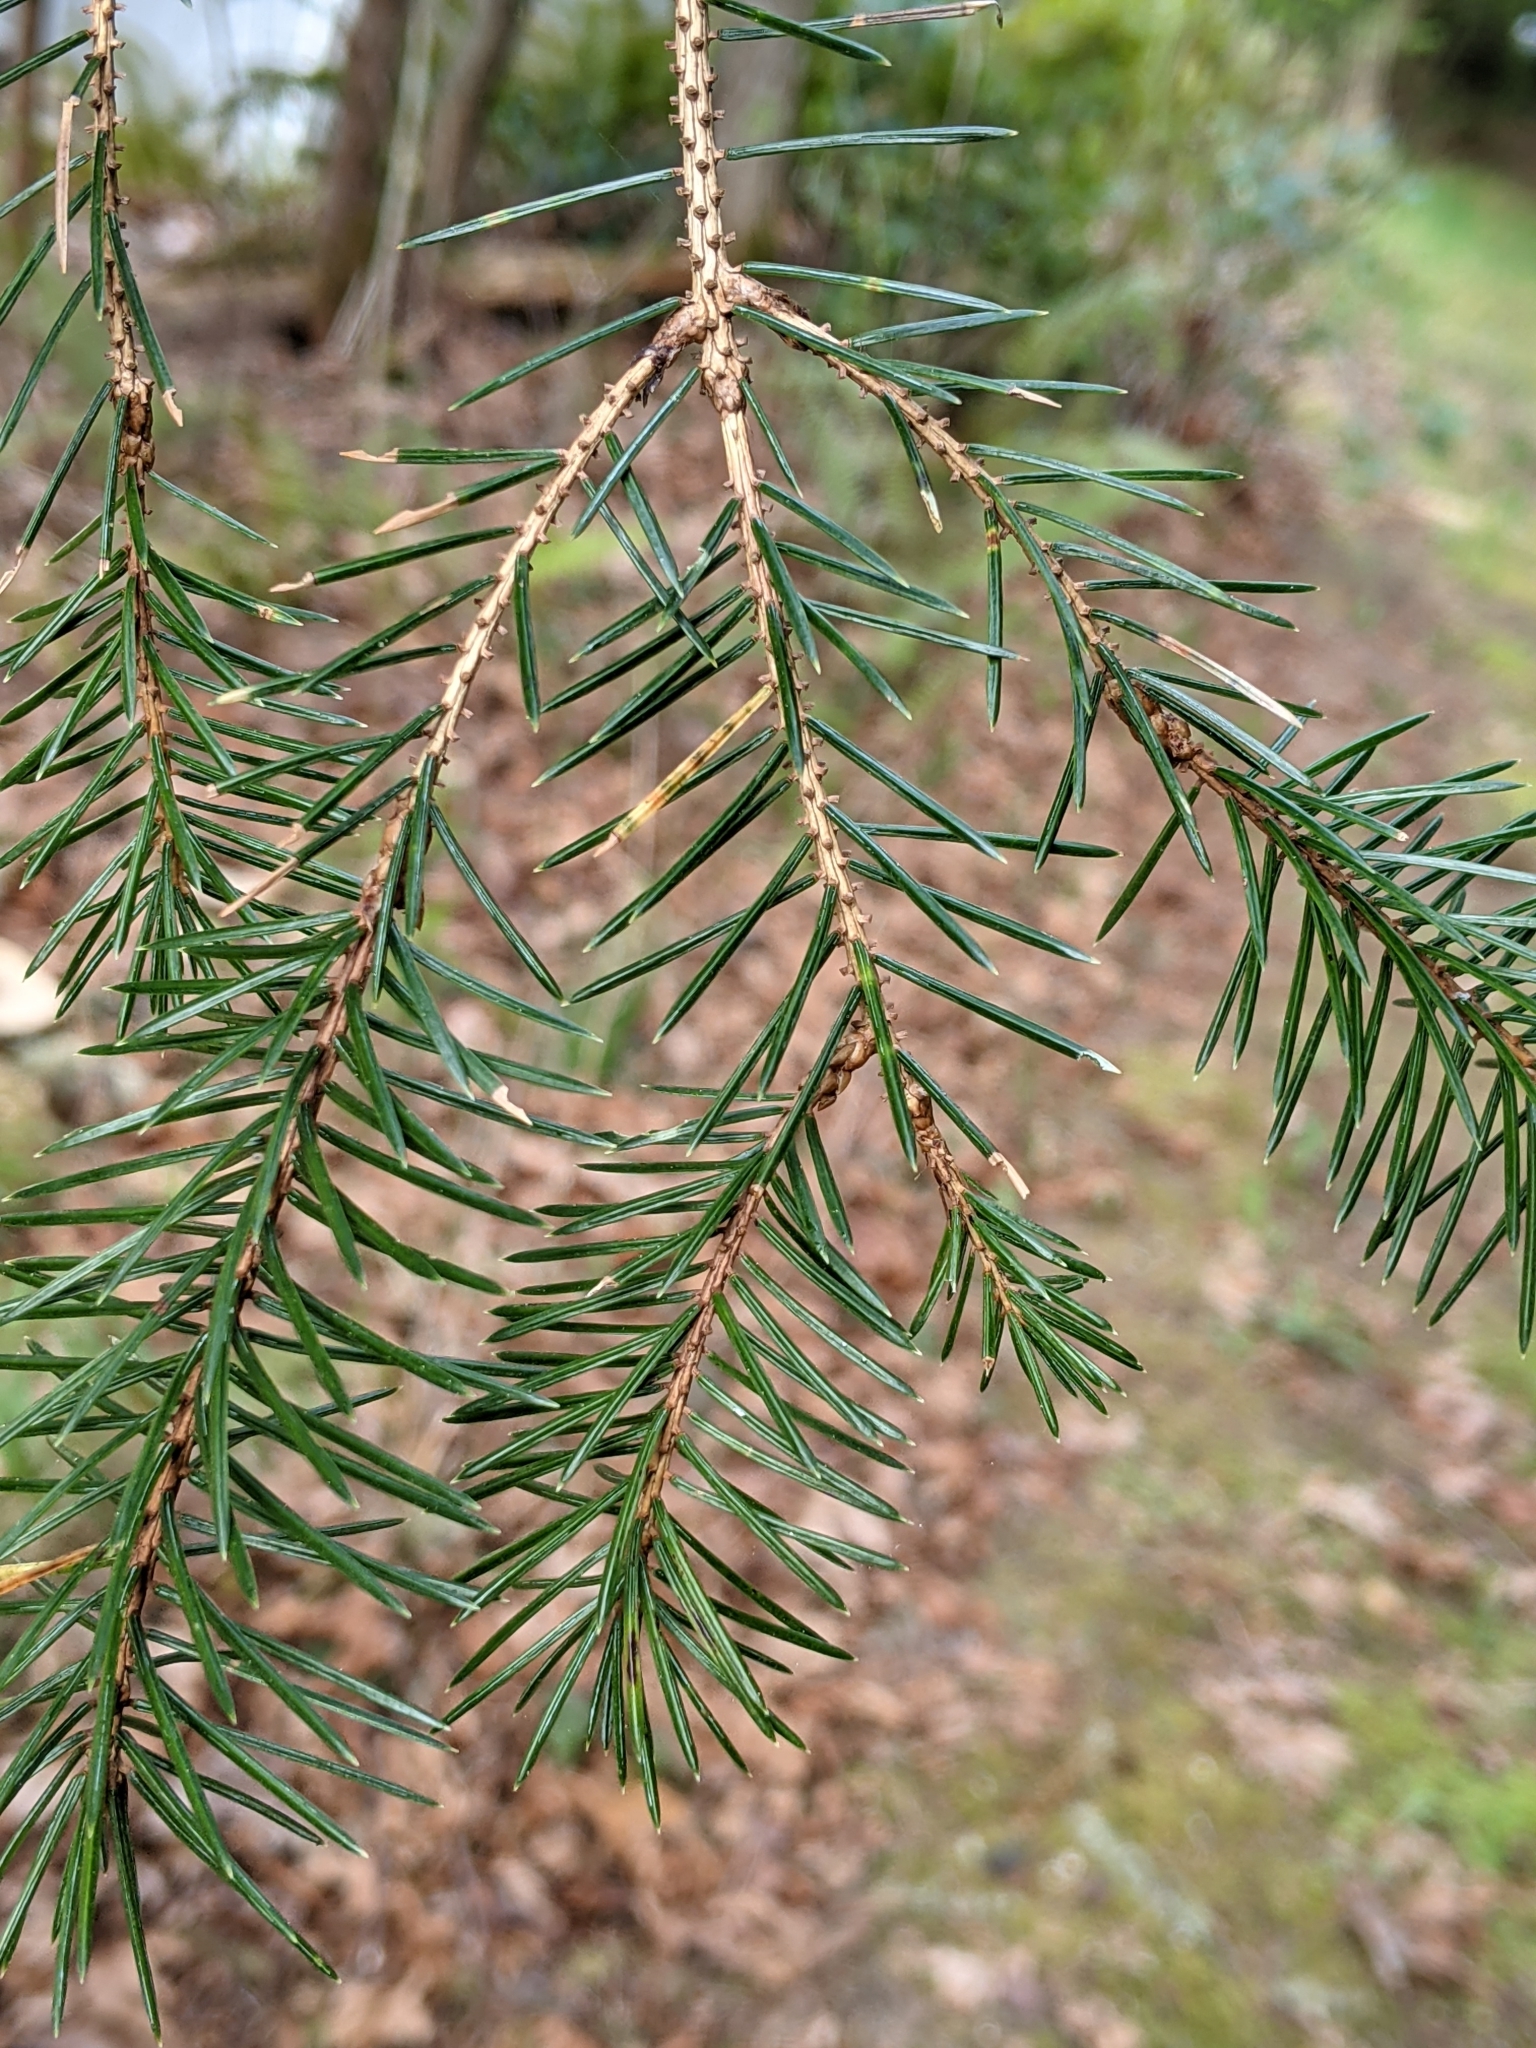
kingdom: Plantae
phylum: Tracheophyta
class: Pinopsida
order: Pinales
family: Pinaceae
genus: Picea
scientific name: Picea sitchensis
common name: Sitka spruce
